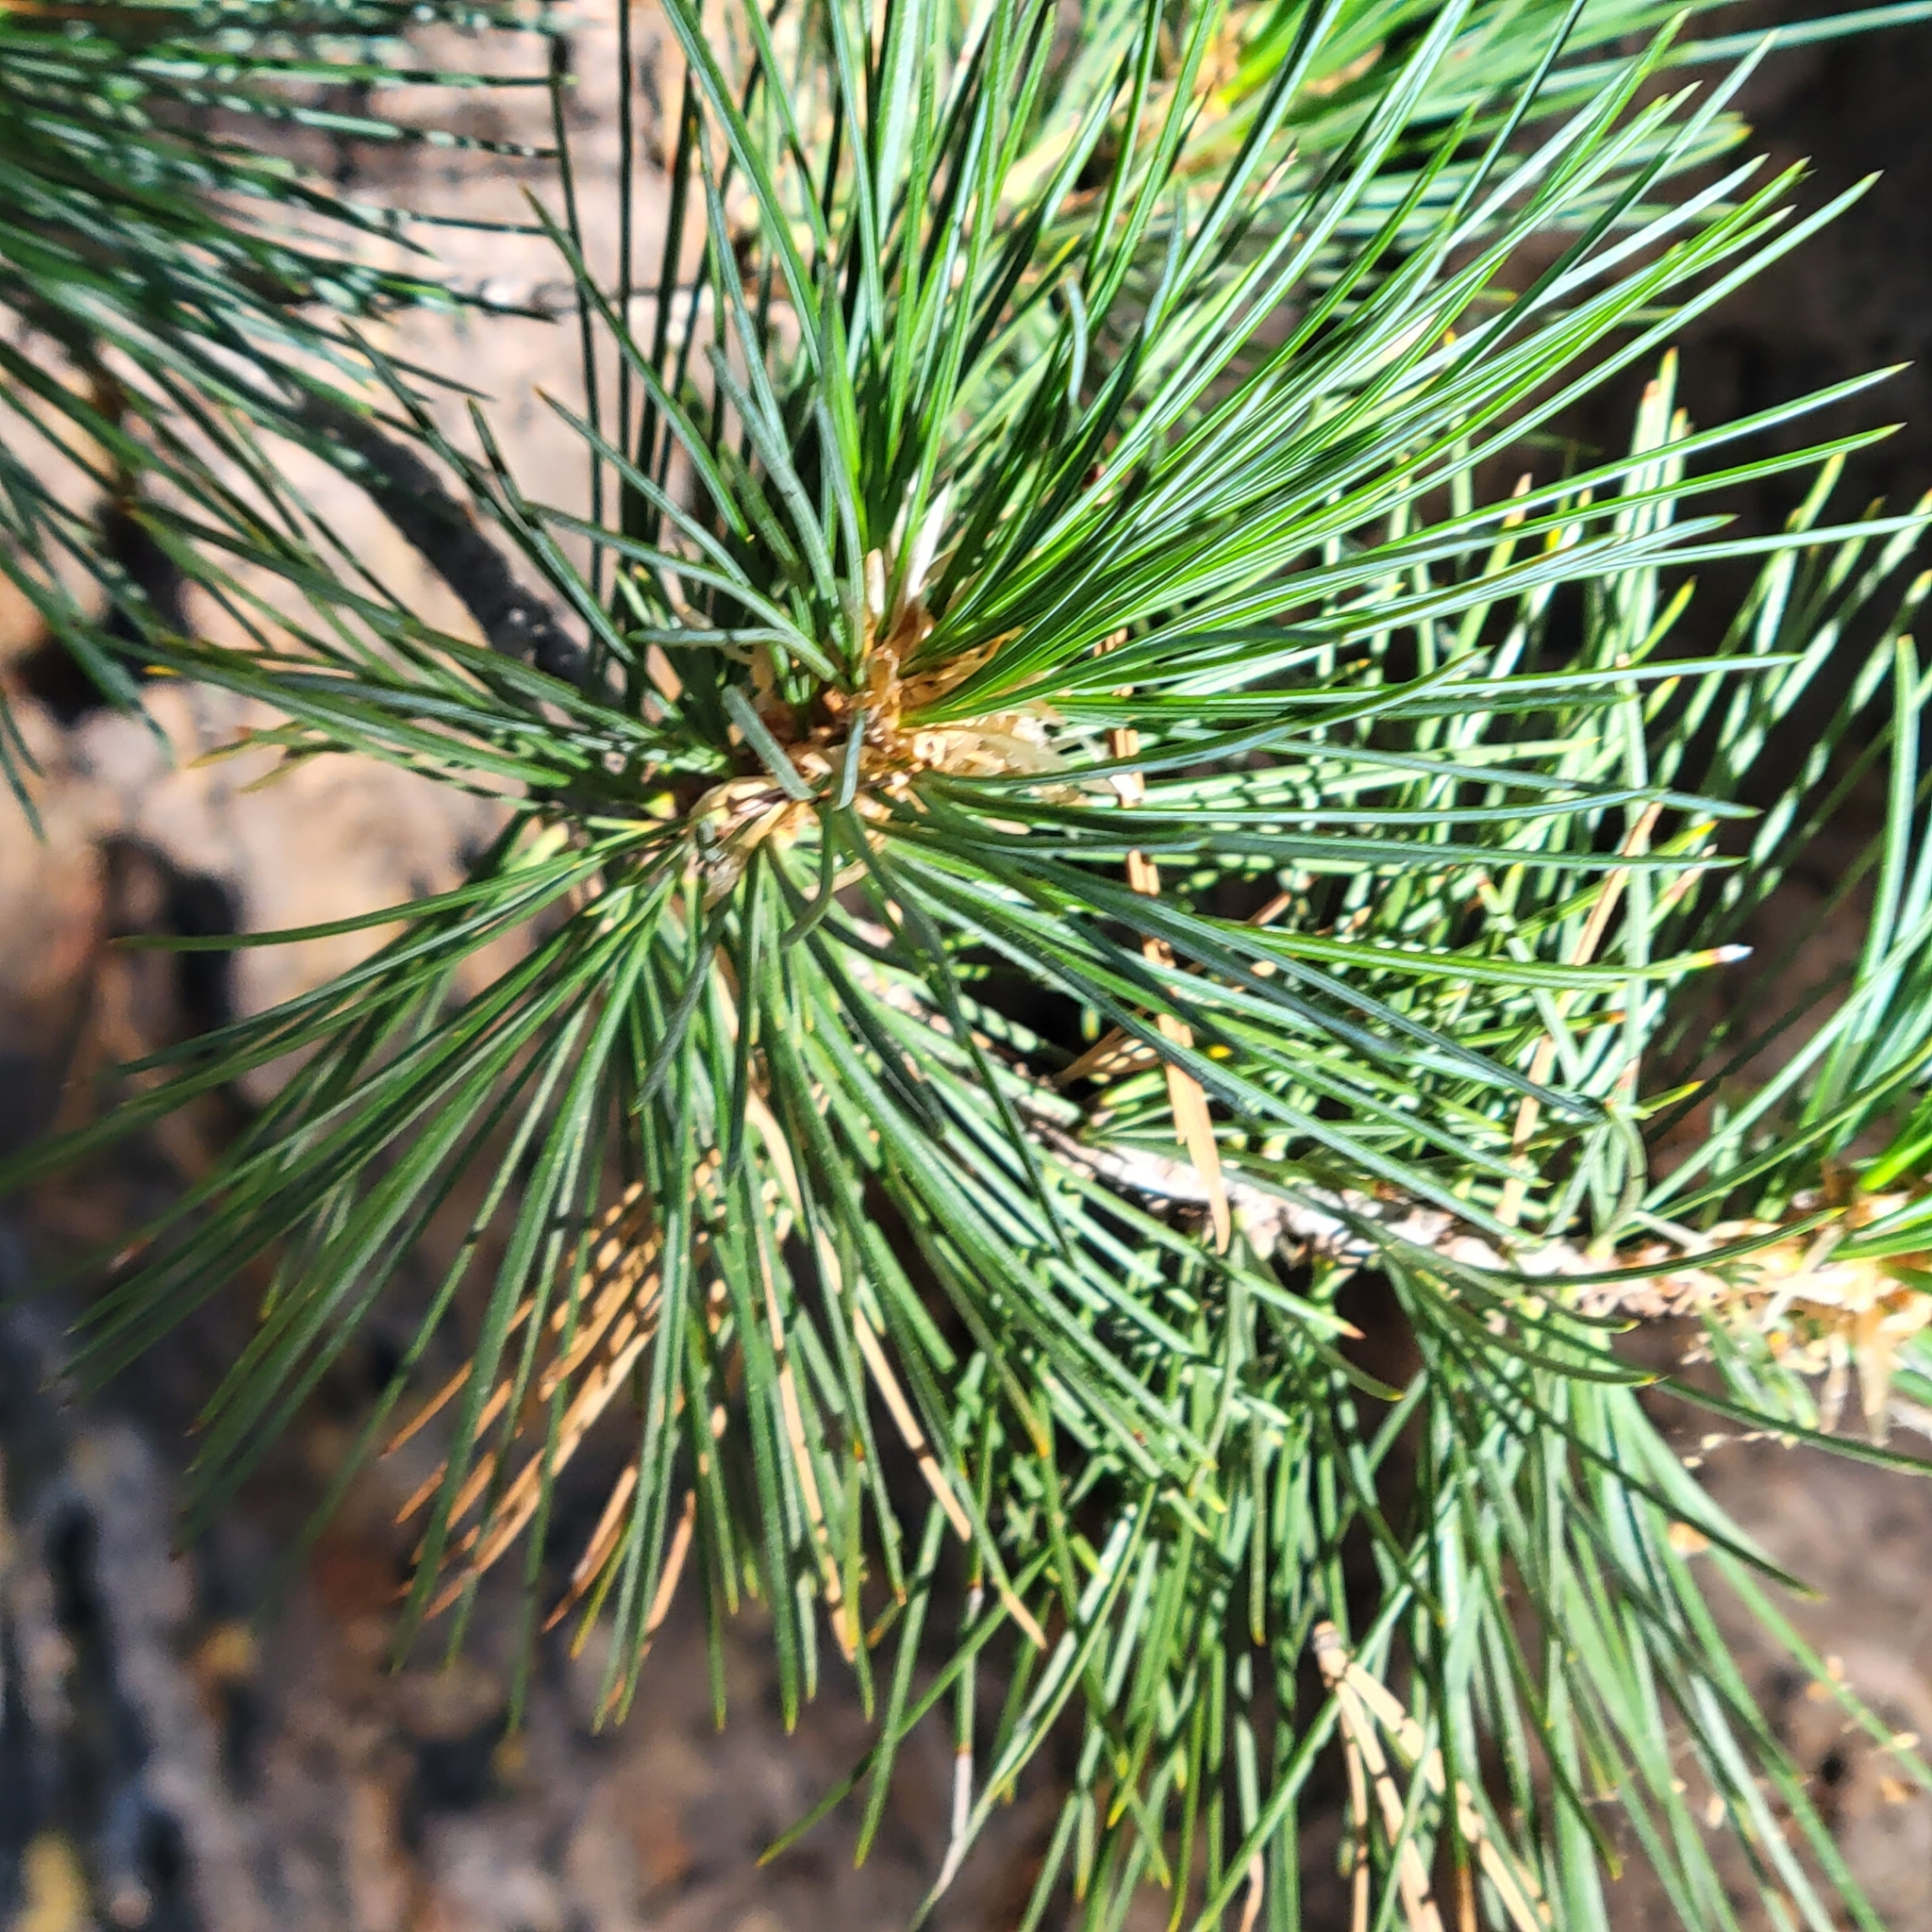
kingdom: Plantae
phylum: Tracheophyta
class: Pinopsida
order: Pinales
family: Pinaceae
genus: Pinus
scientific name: Pinus lambertiana
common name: Sugar pine
